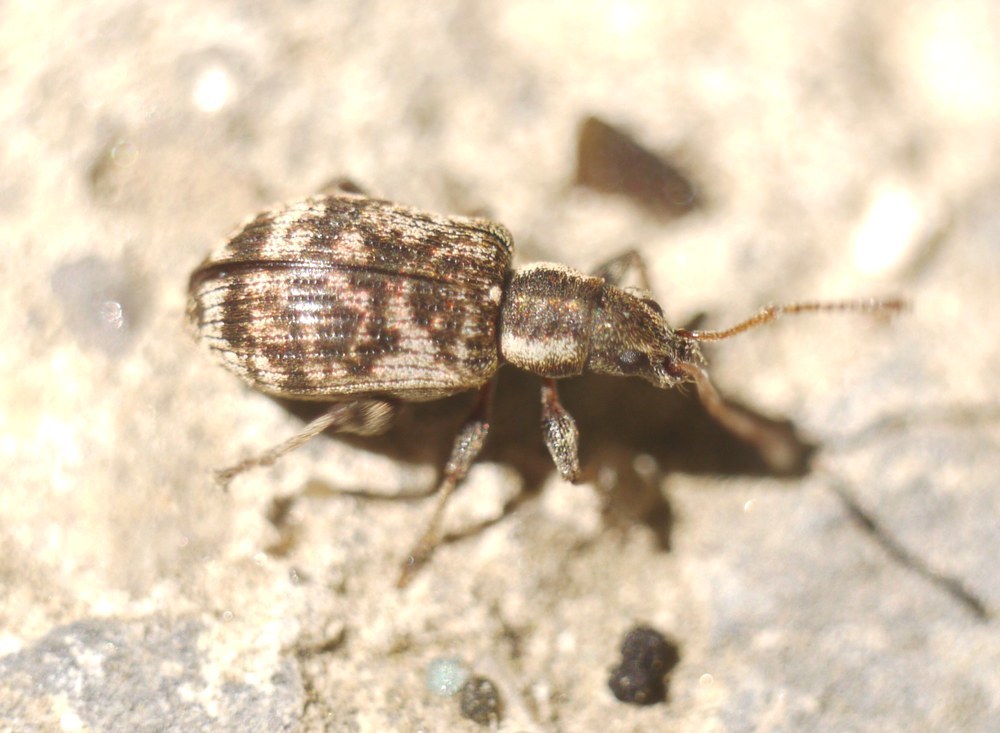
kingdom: Animalia
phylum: Arthropoda
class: Insecta
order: Coleoptera
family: Curculionidae
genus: Oedecnemidius
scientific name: Oedecnemidius varius
